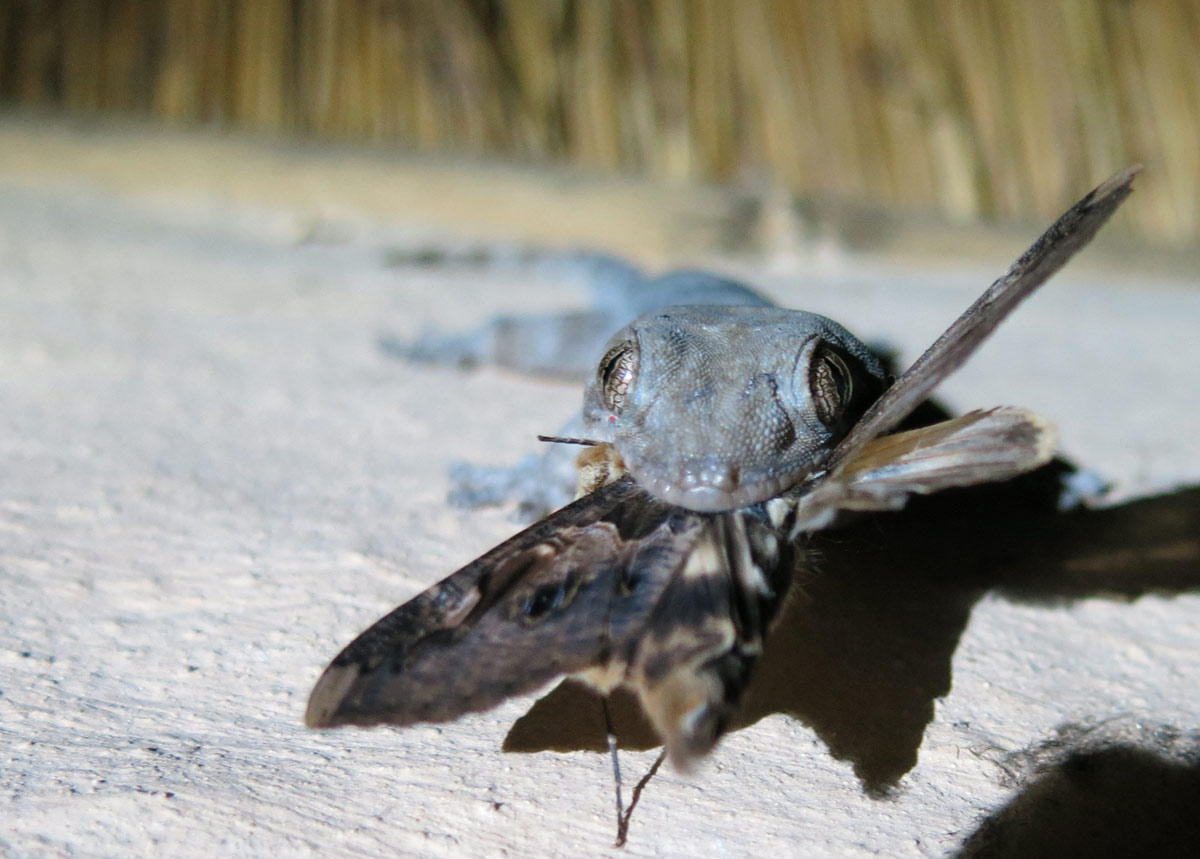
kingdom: Animalia
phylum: Chordata
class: Squamata
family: Gekkonidae
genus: Homopholis
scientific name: Homopholis walbergii
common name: Wahlberg’s velvet gecko
